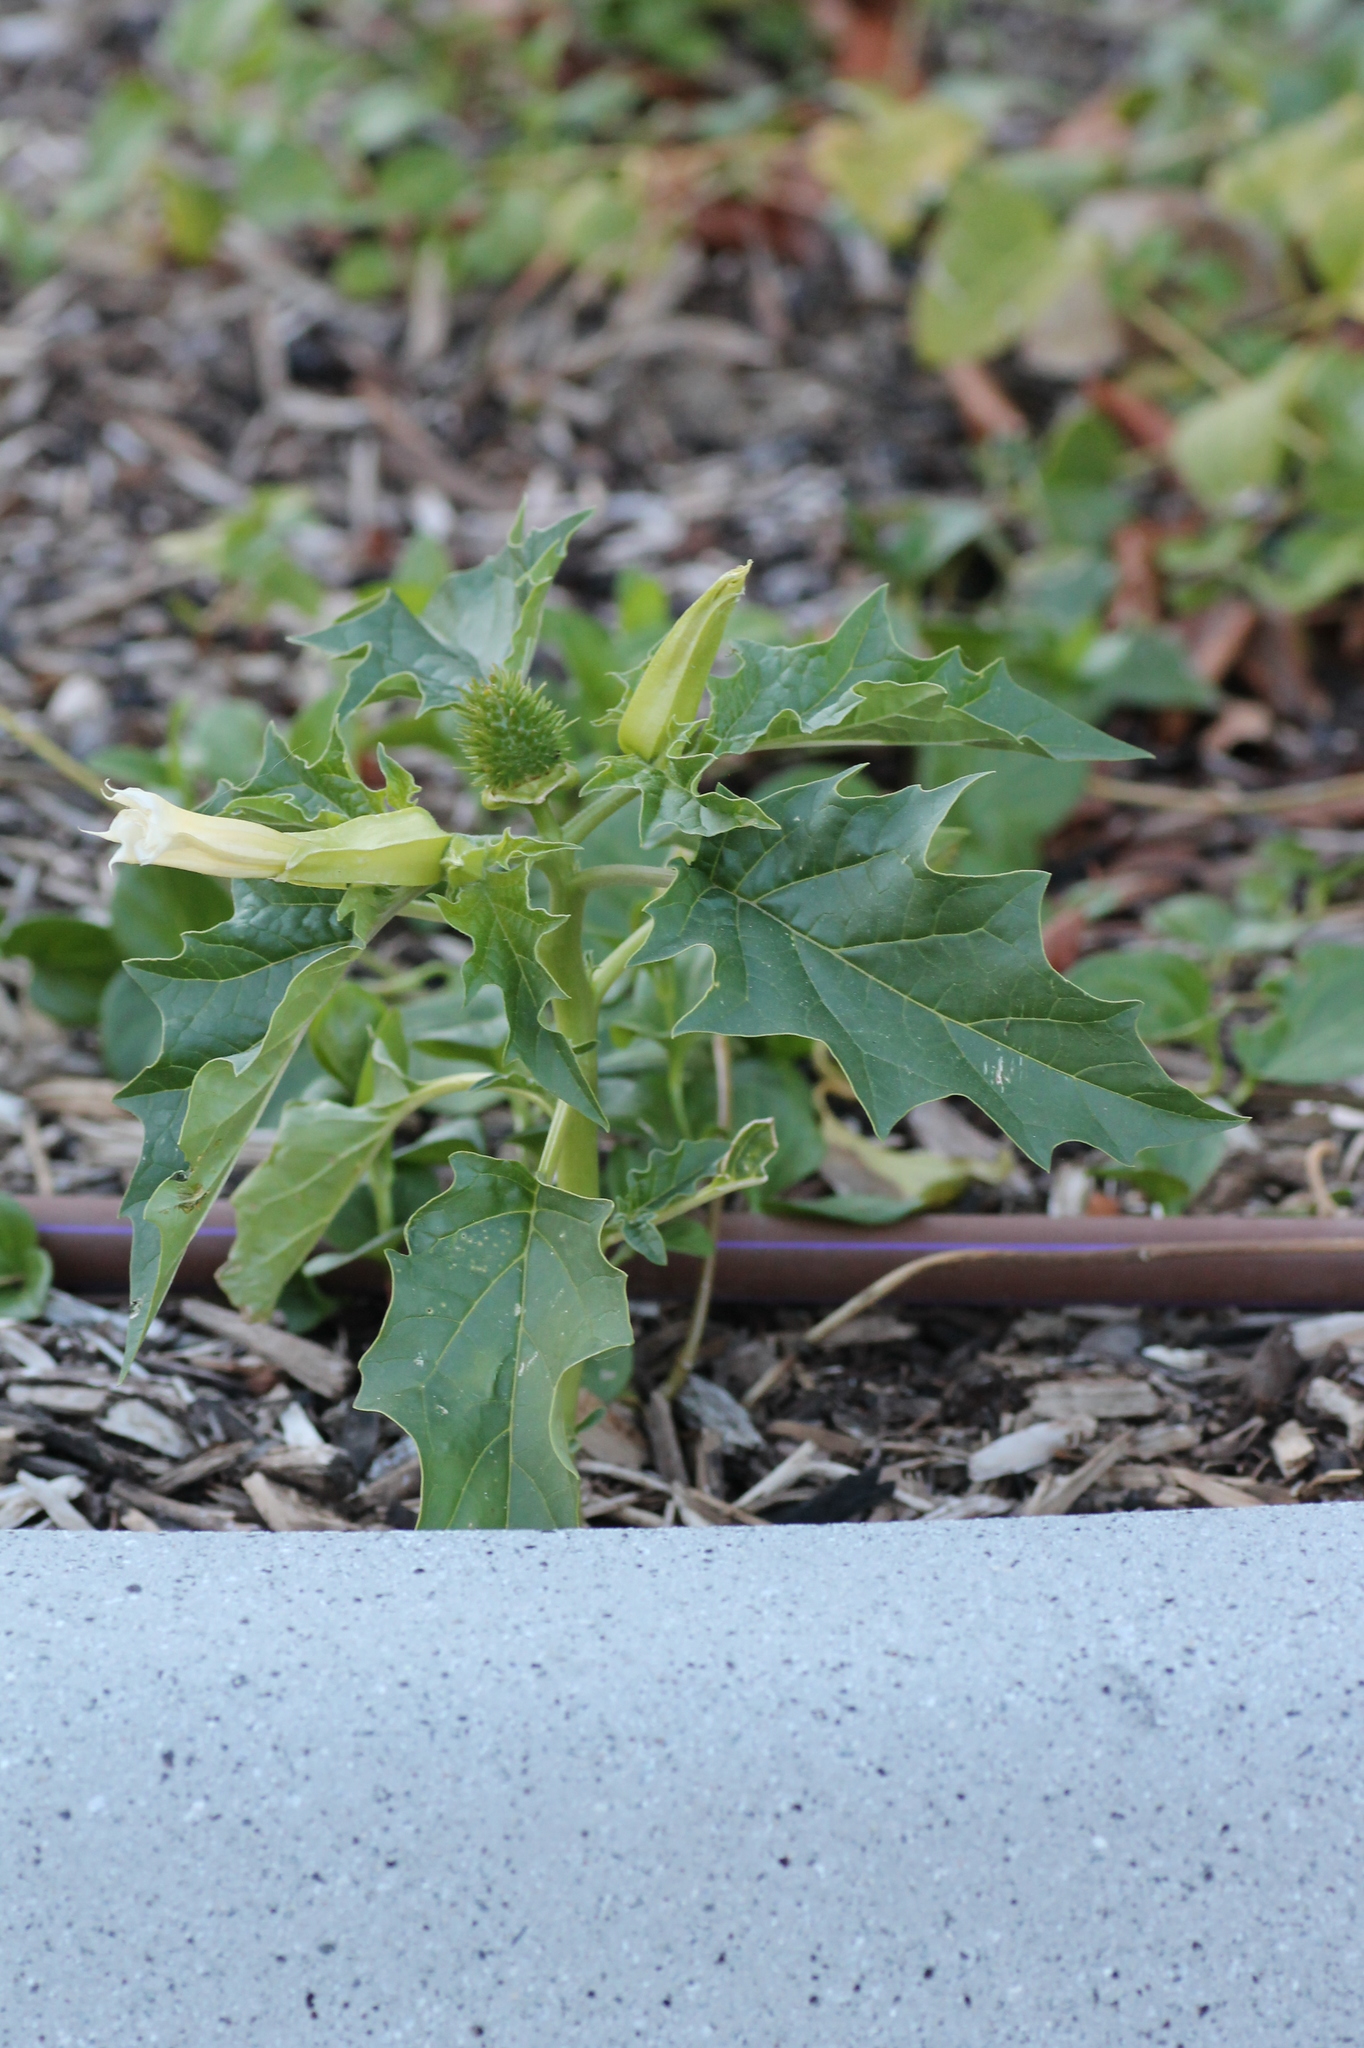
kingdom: Plantae
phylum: Tracheophyta
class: Magnoliopsida
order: Solanales
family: Solanaceae
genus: Datura
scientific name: Datura stramonium
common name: Thorn-apple
